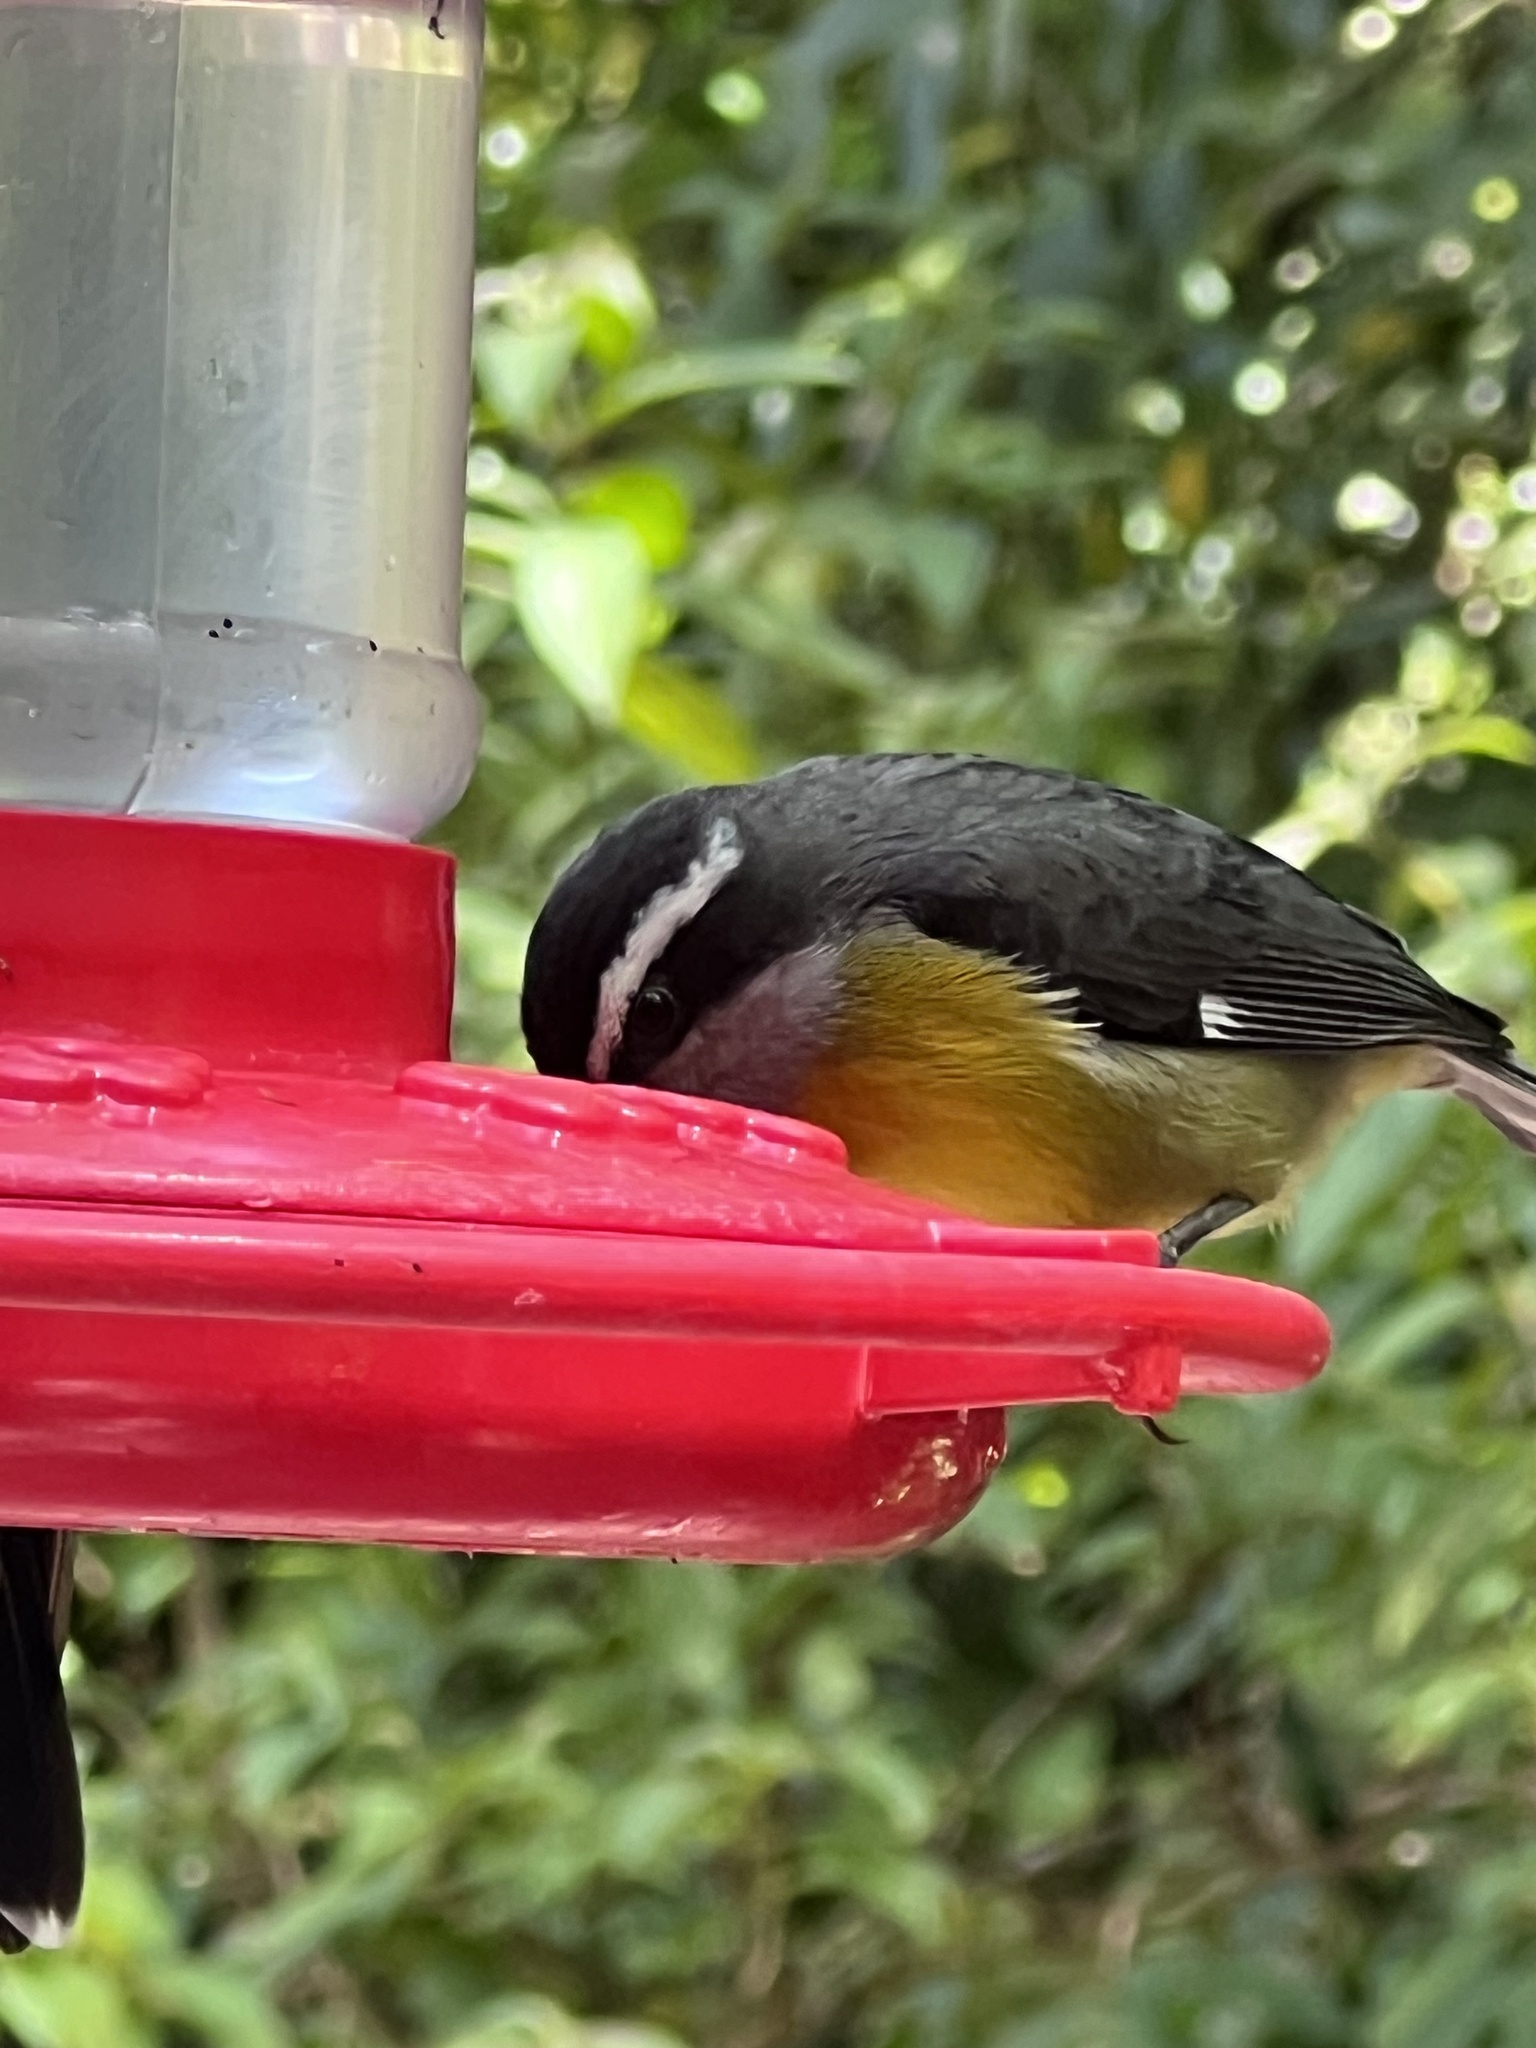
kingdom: Animalia
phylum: Chordata
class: Aves
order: Passeriformes
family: Thraupidae
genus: Coereba
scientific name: Coereba flaveola
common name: Bananaquit
